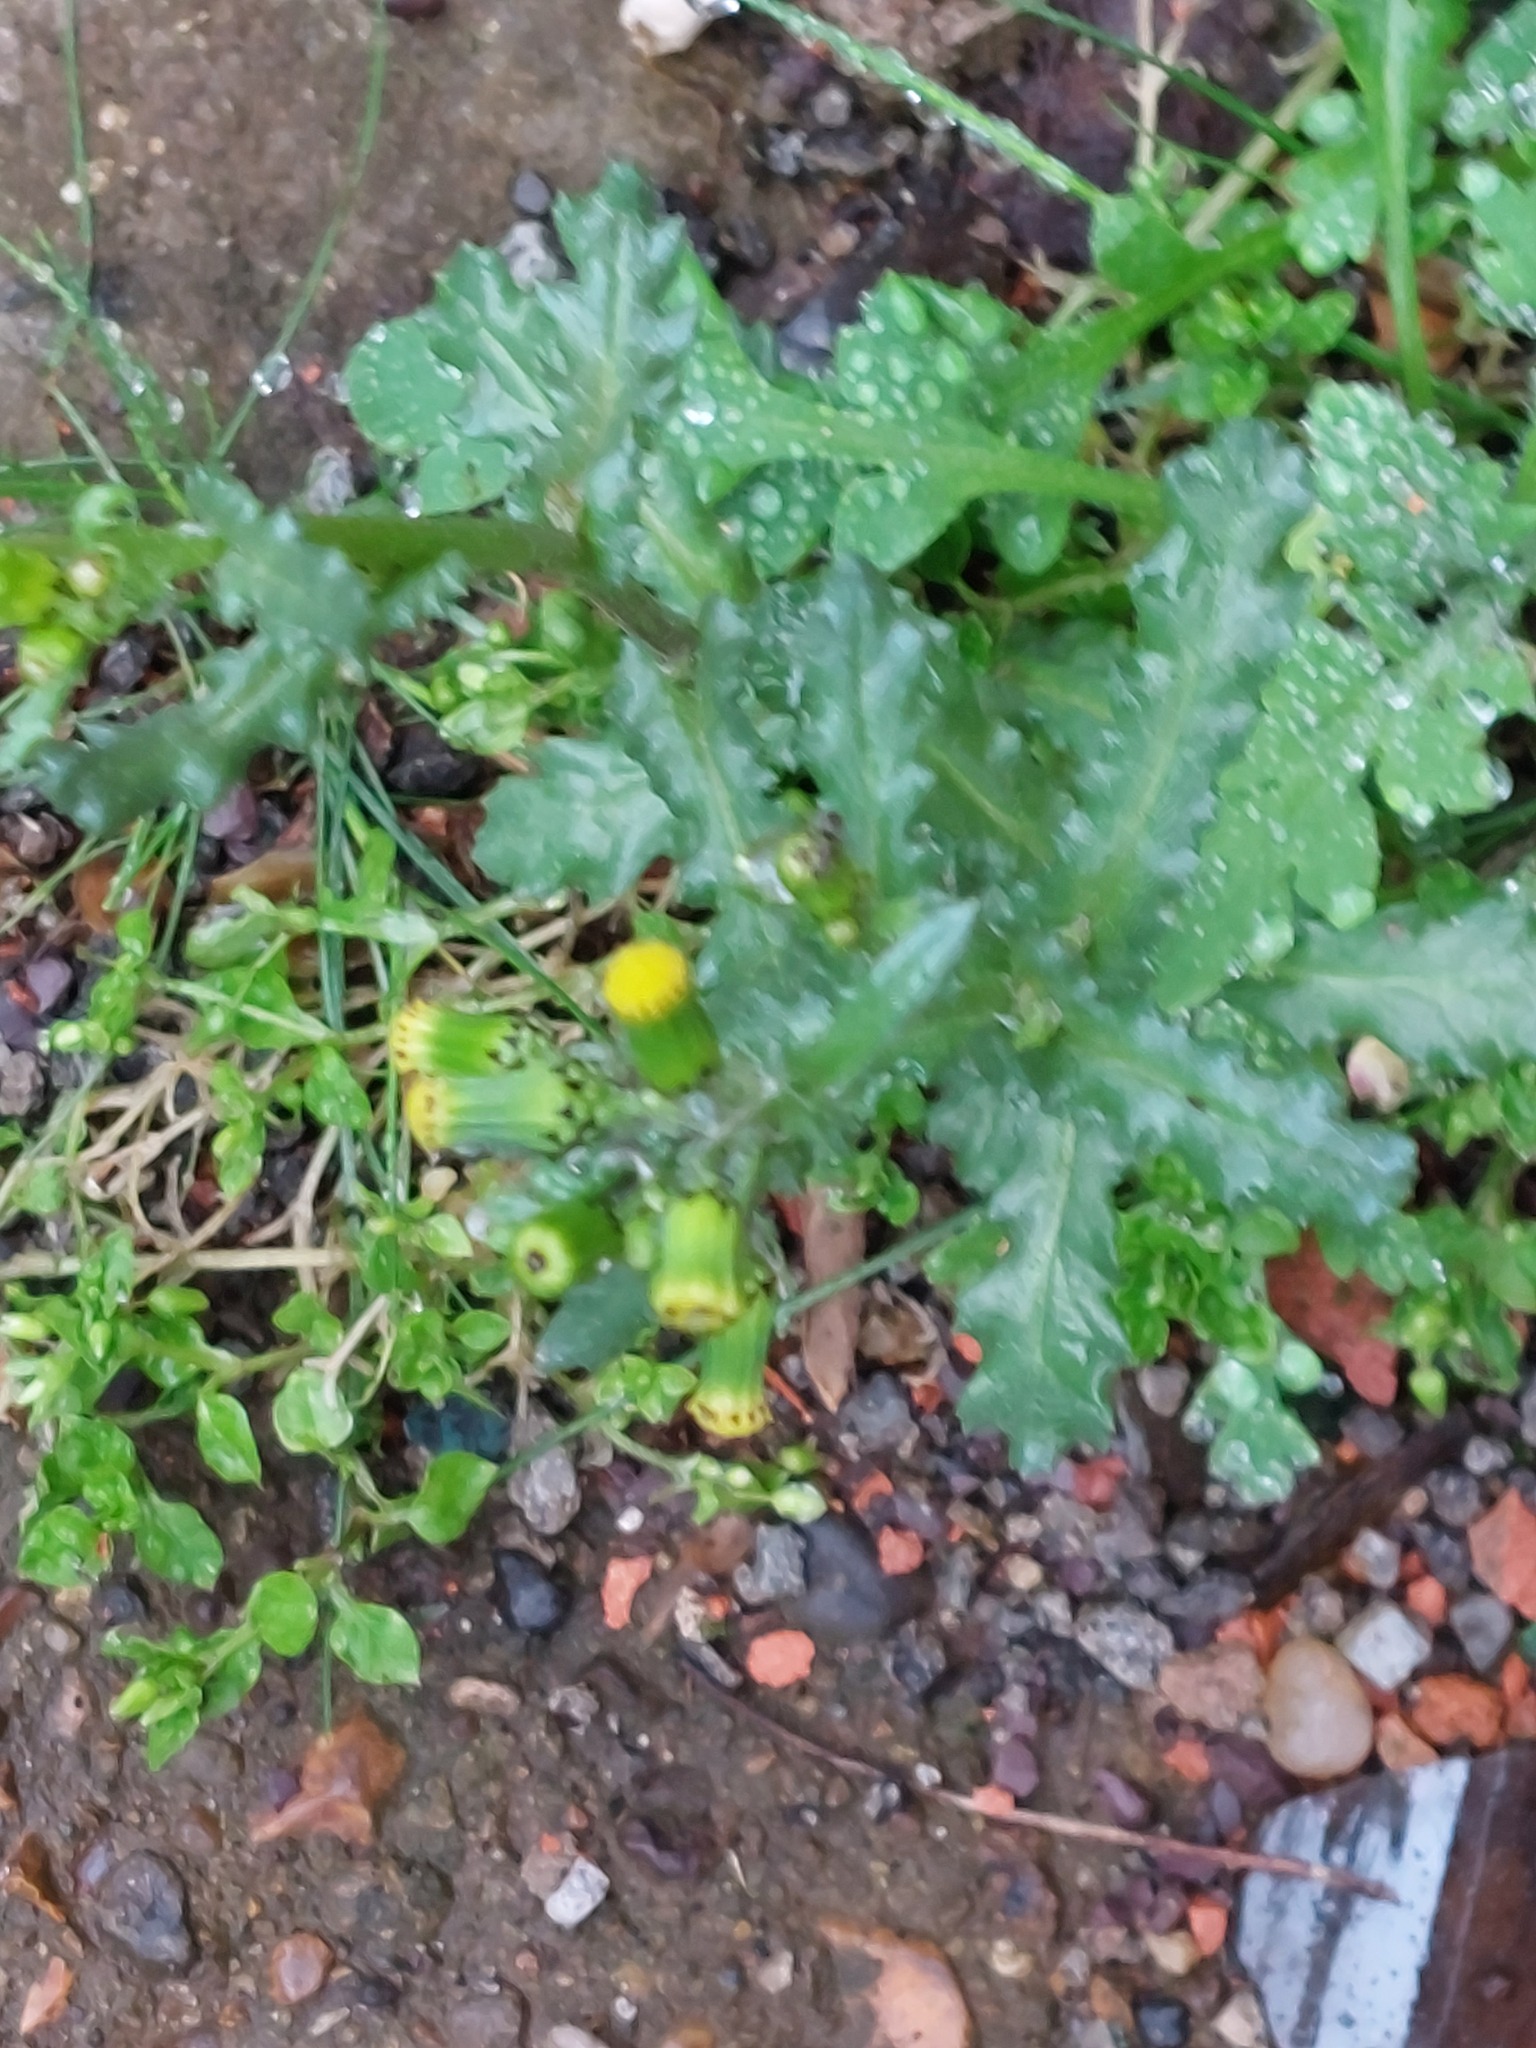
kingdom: Plantae
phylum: Tracheophyta
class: Magnoliopsida
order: Asterales
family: Asteraceae
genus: Senecio
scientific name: Senecio vulgaris
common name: Old-man-in-the-spring
